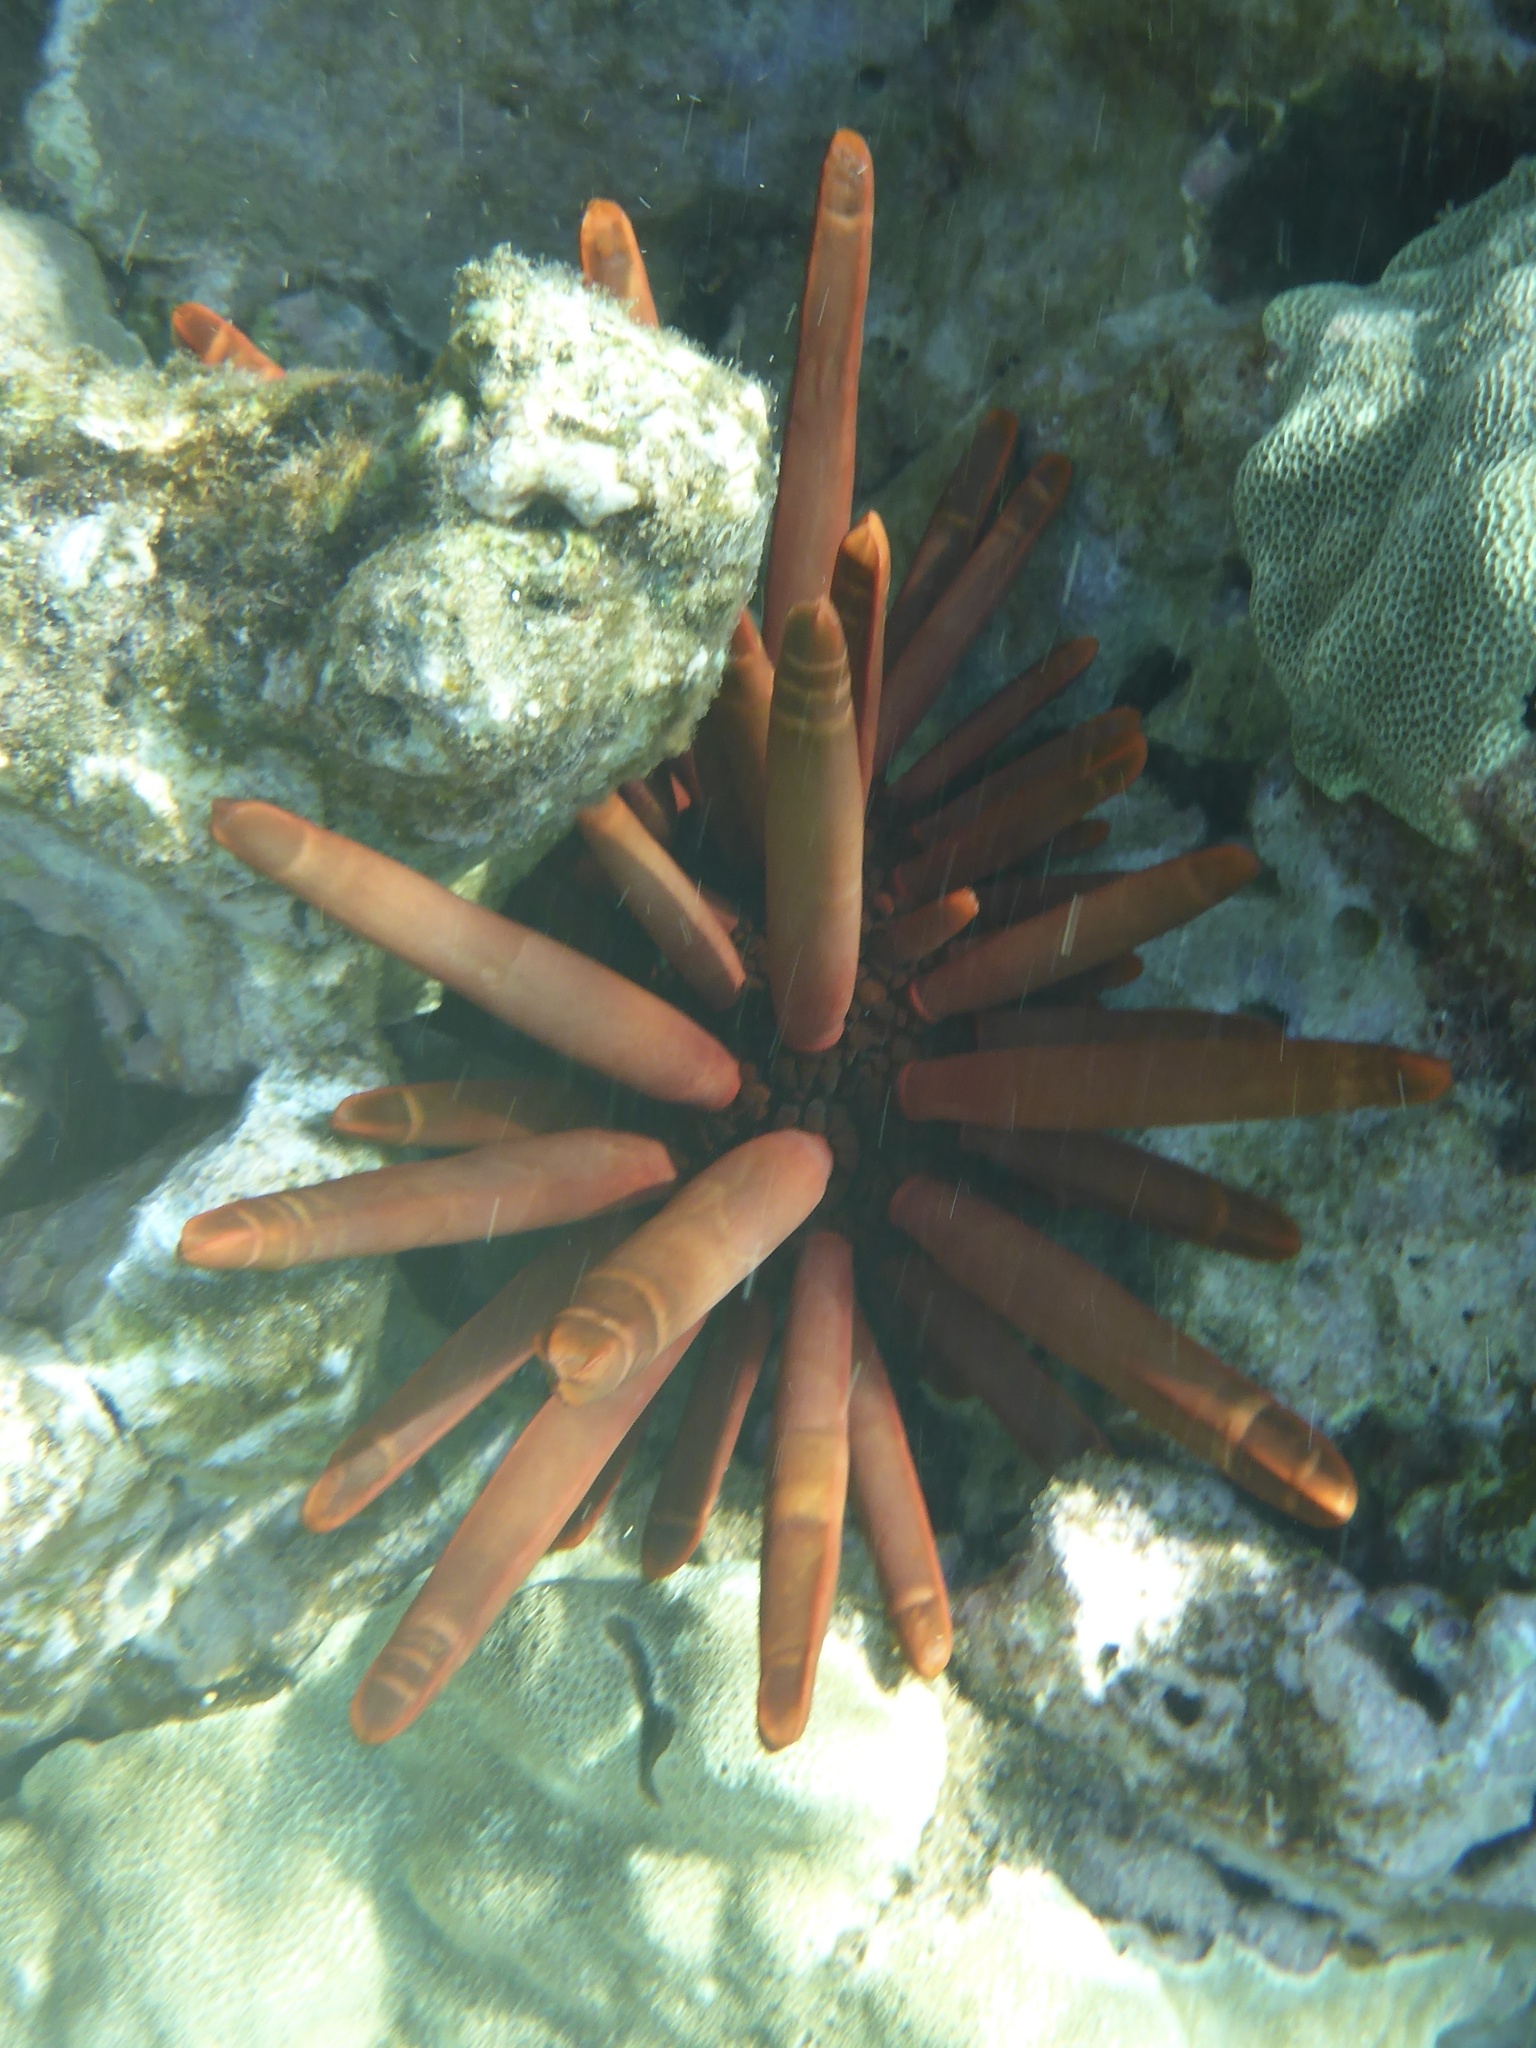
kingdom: Animalia
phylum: Echinodermata
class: Echinoidea
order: Camarodonta
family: Echinometridae
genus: Heterocentrotus
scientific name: Heterocentrotus mamillatus
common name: Slate pencil urchin
